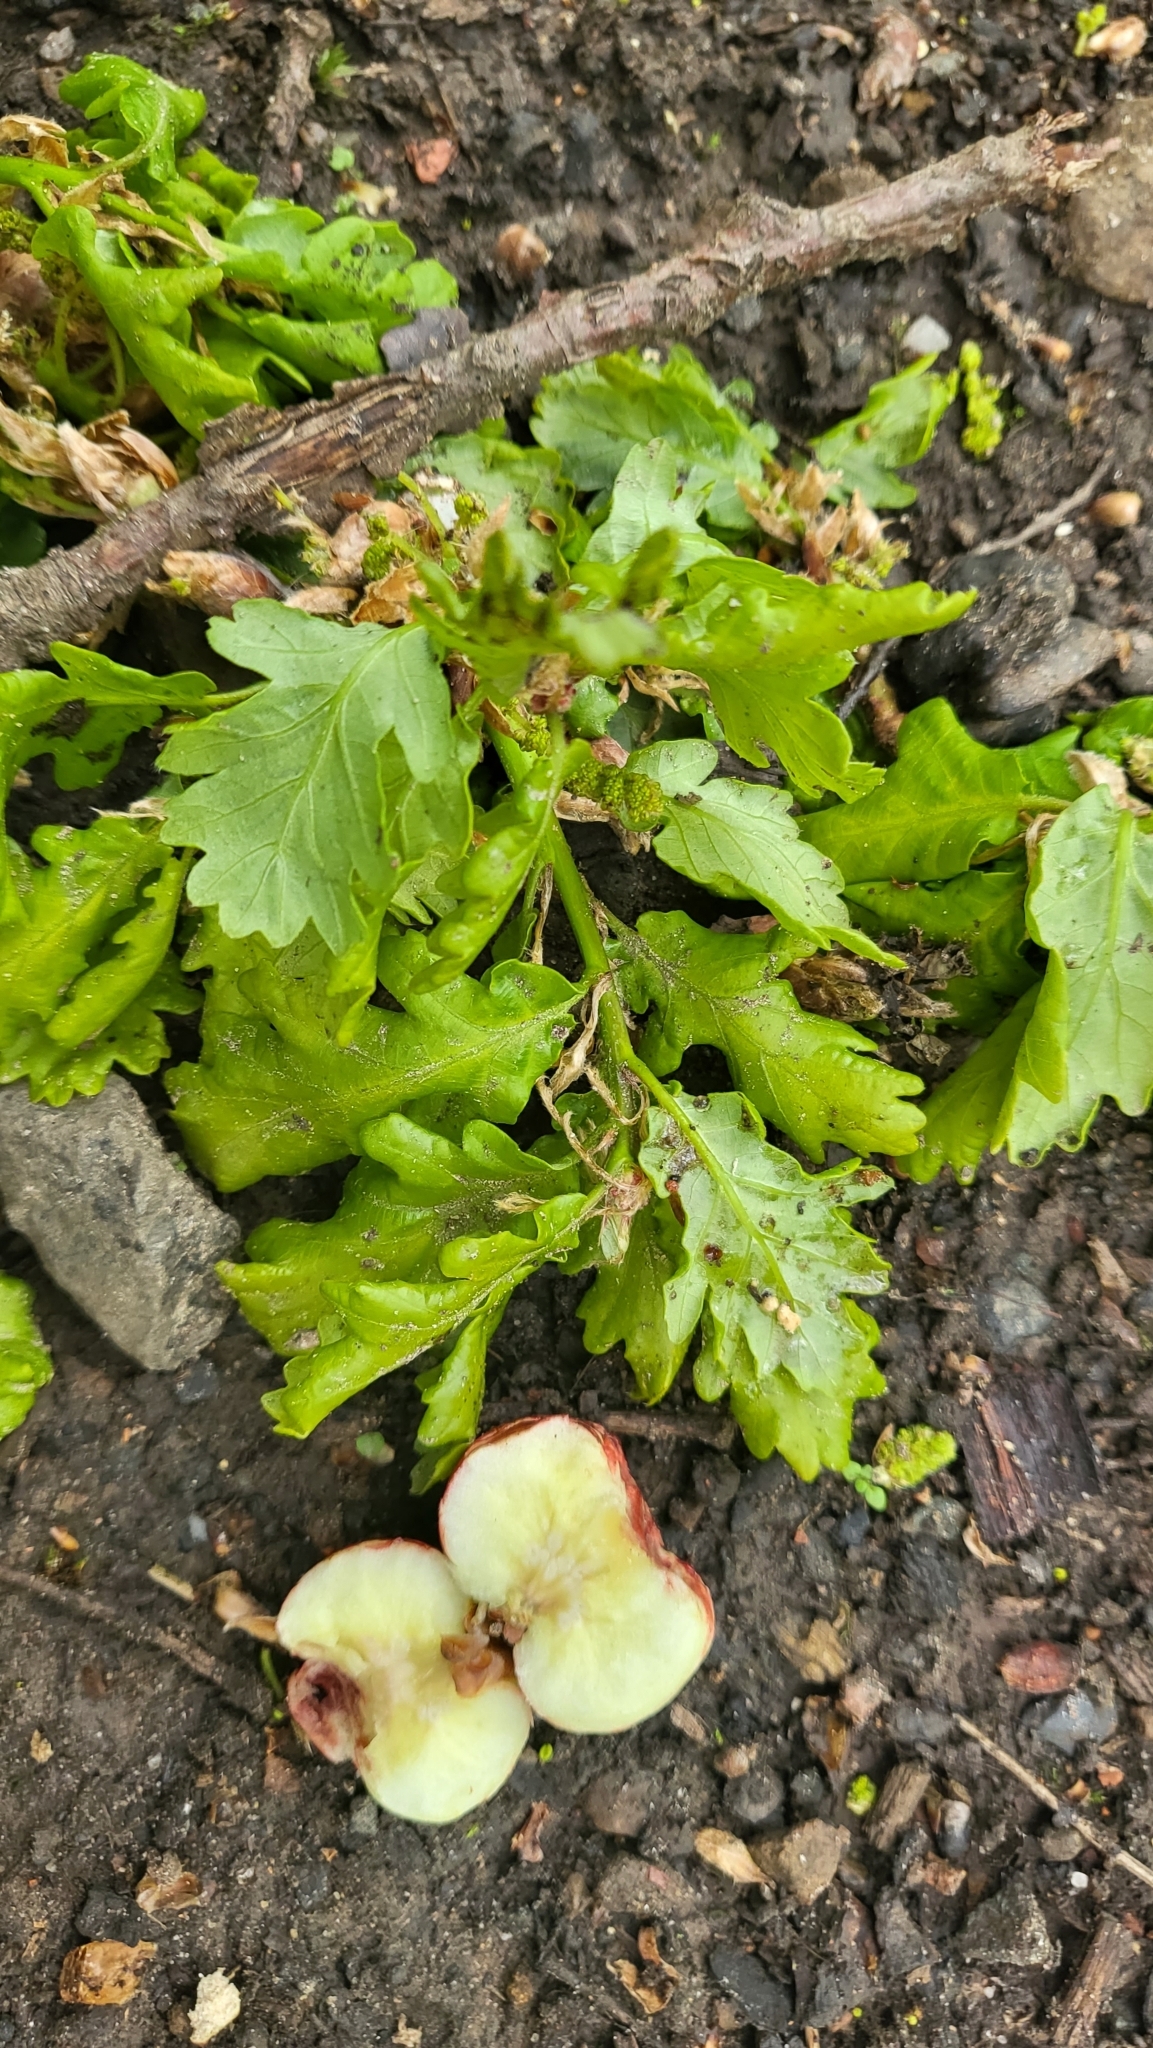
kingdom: Animalia
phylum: Arthropoda
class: Insecta
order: Hymenoptera
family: Cynipidae
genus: Biorhiza
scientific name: Biorhiza pallida
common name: Oak apple
